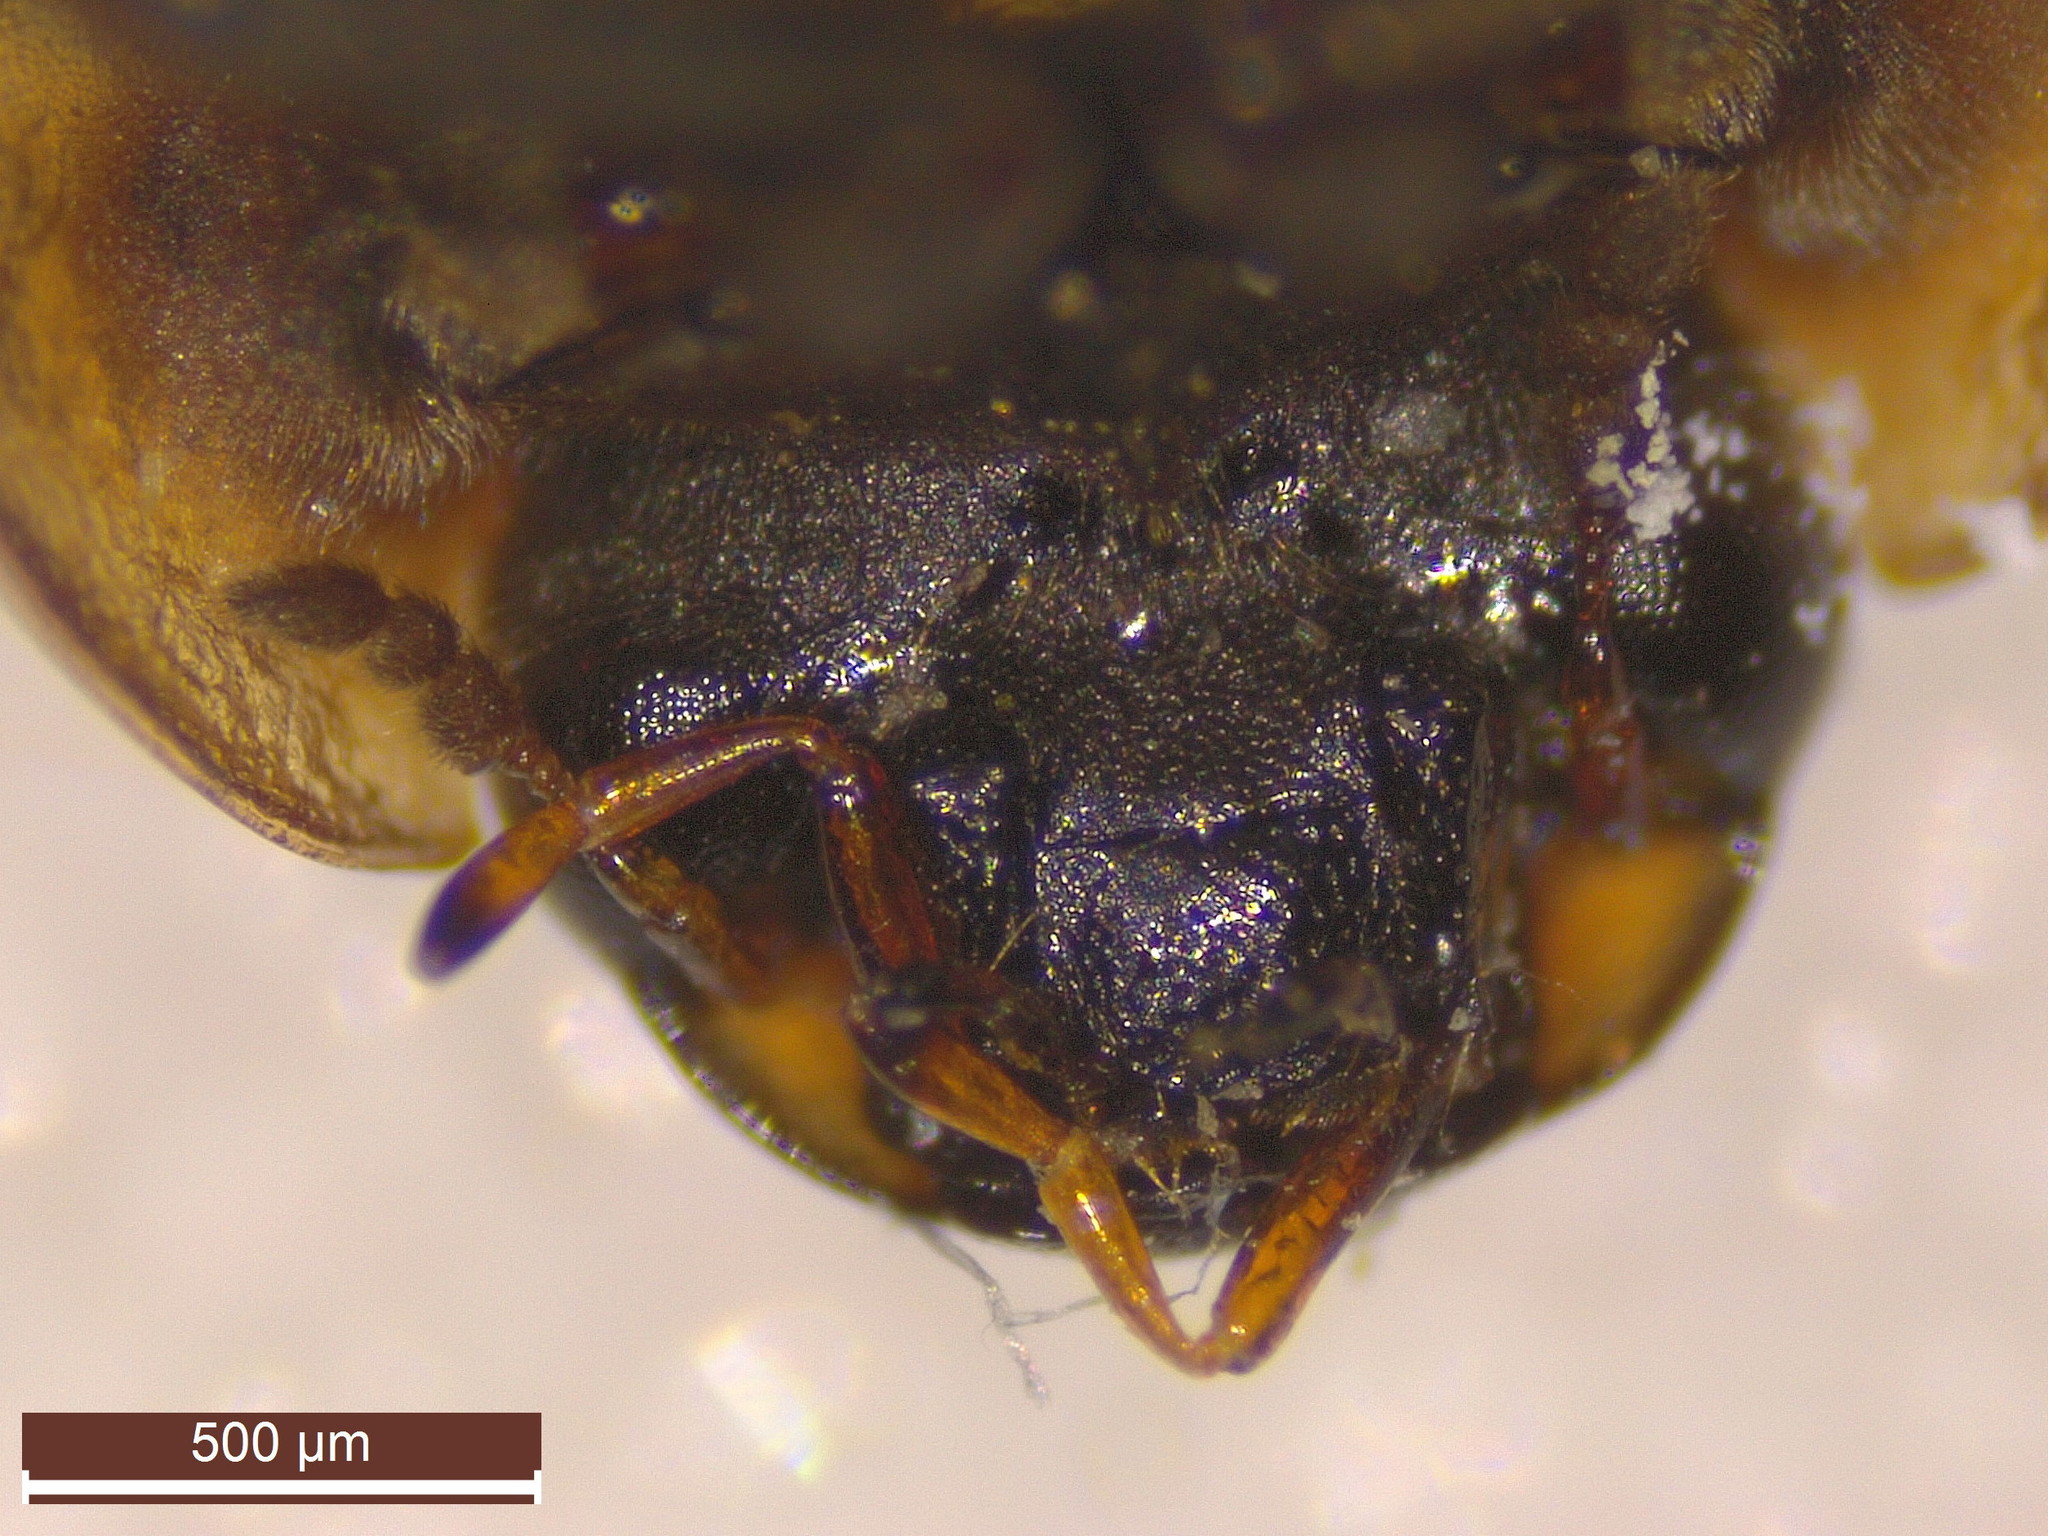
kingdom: Animalia
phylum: Arthropoda
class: Insecta
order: Coleoptera
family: Hydrophilidae
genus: Enochrus
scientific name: Enochrus melanocephalus
